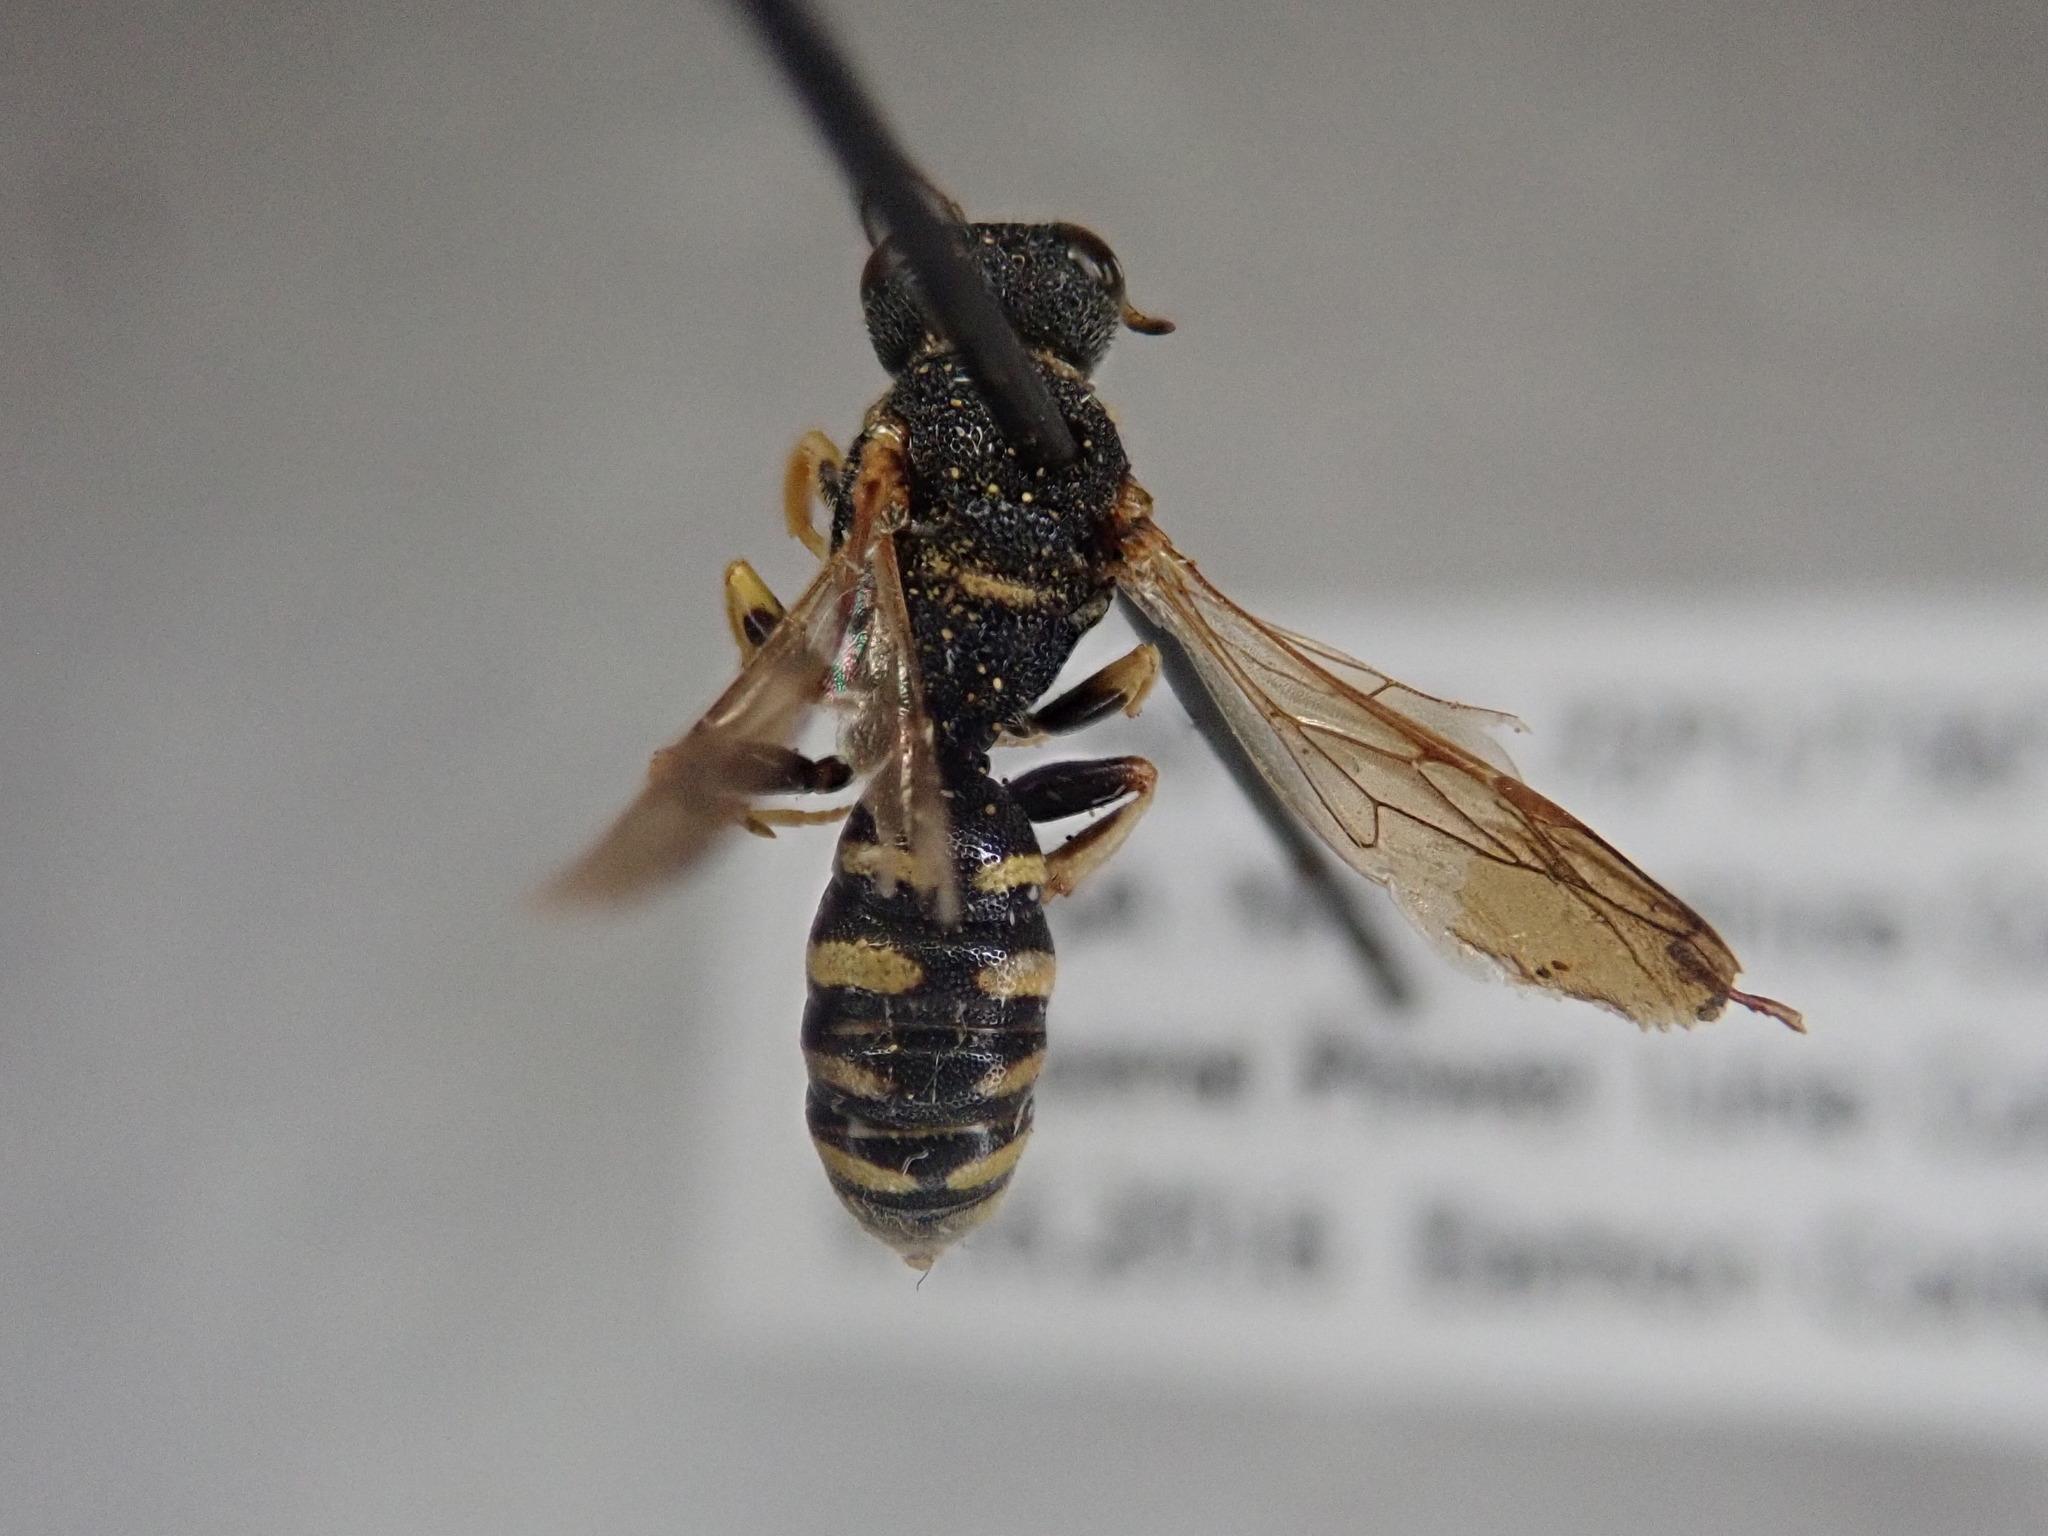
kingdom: Animalia
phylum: Arthropoda
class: Insecta
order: Hymenoptera
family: Crabronidae
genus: Lestica
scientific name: Lestica confluenta
